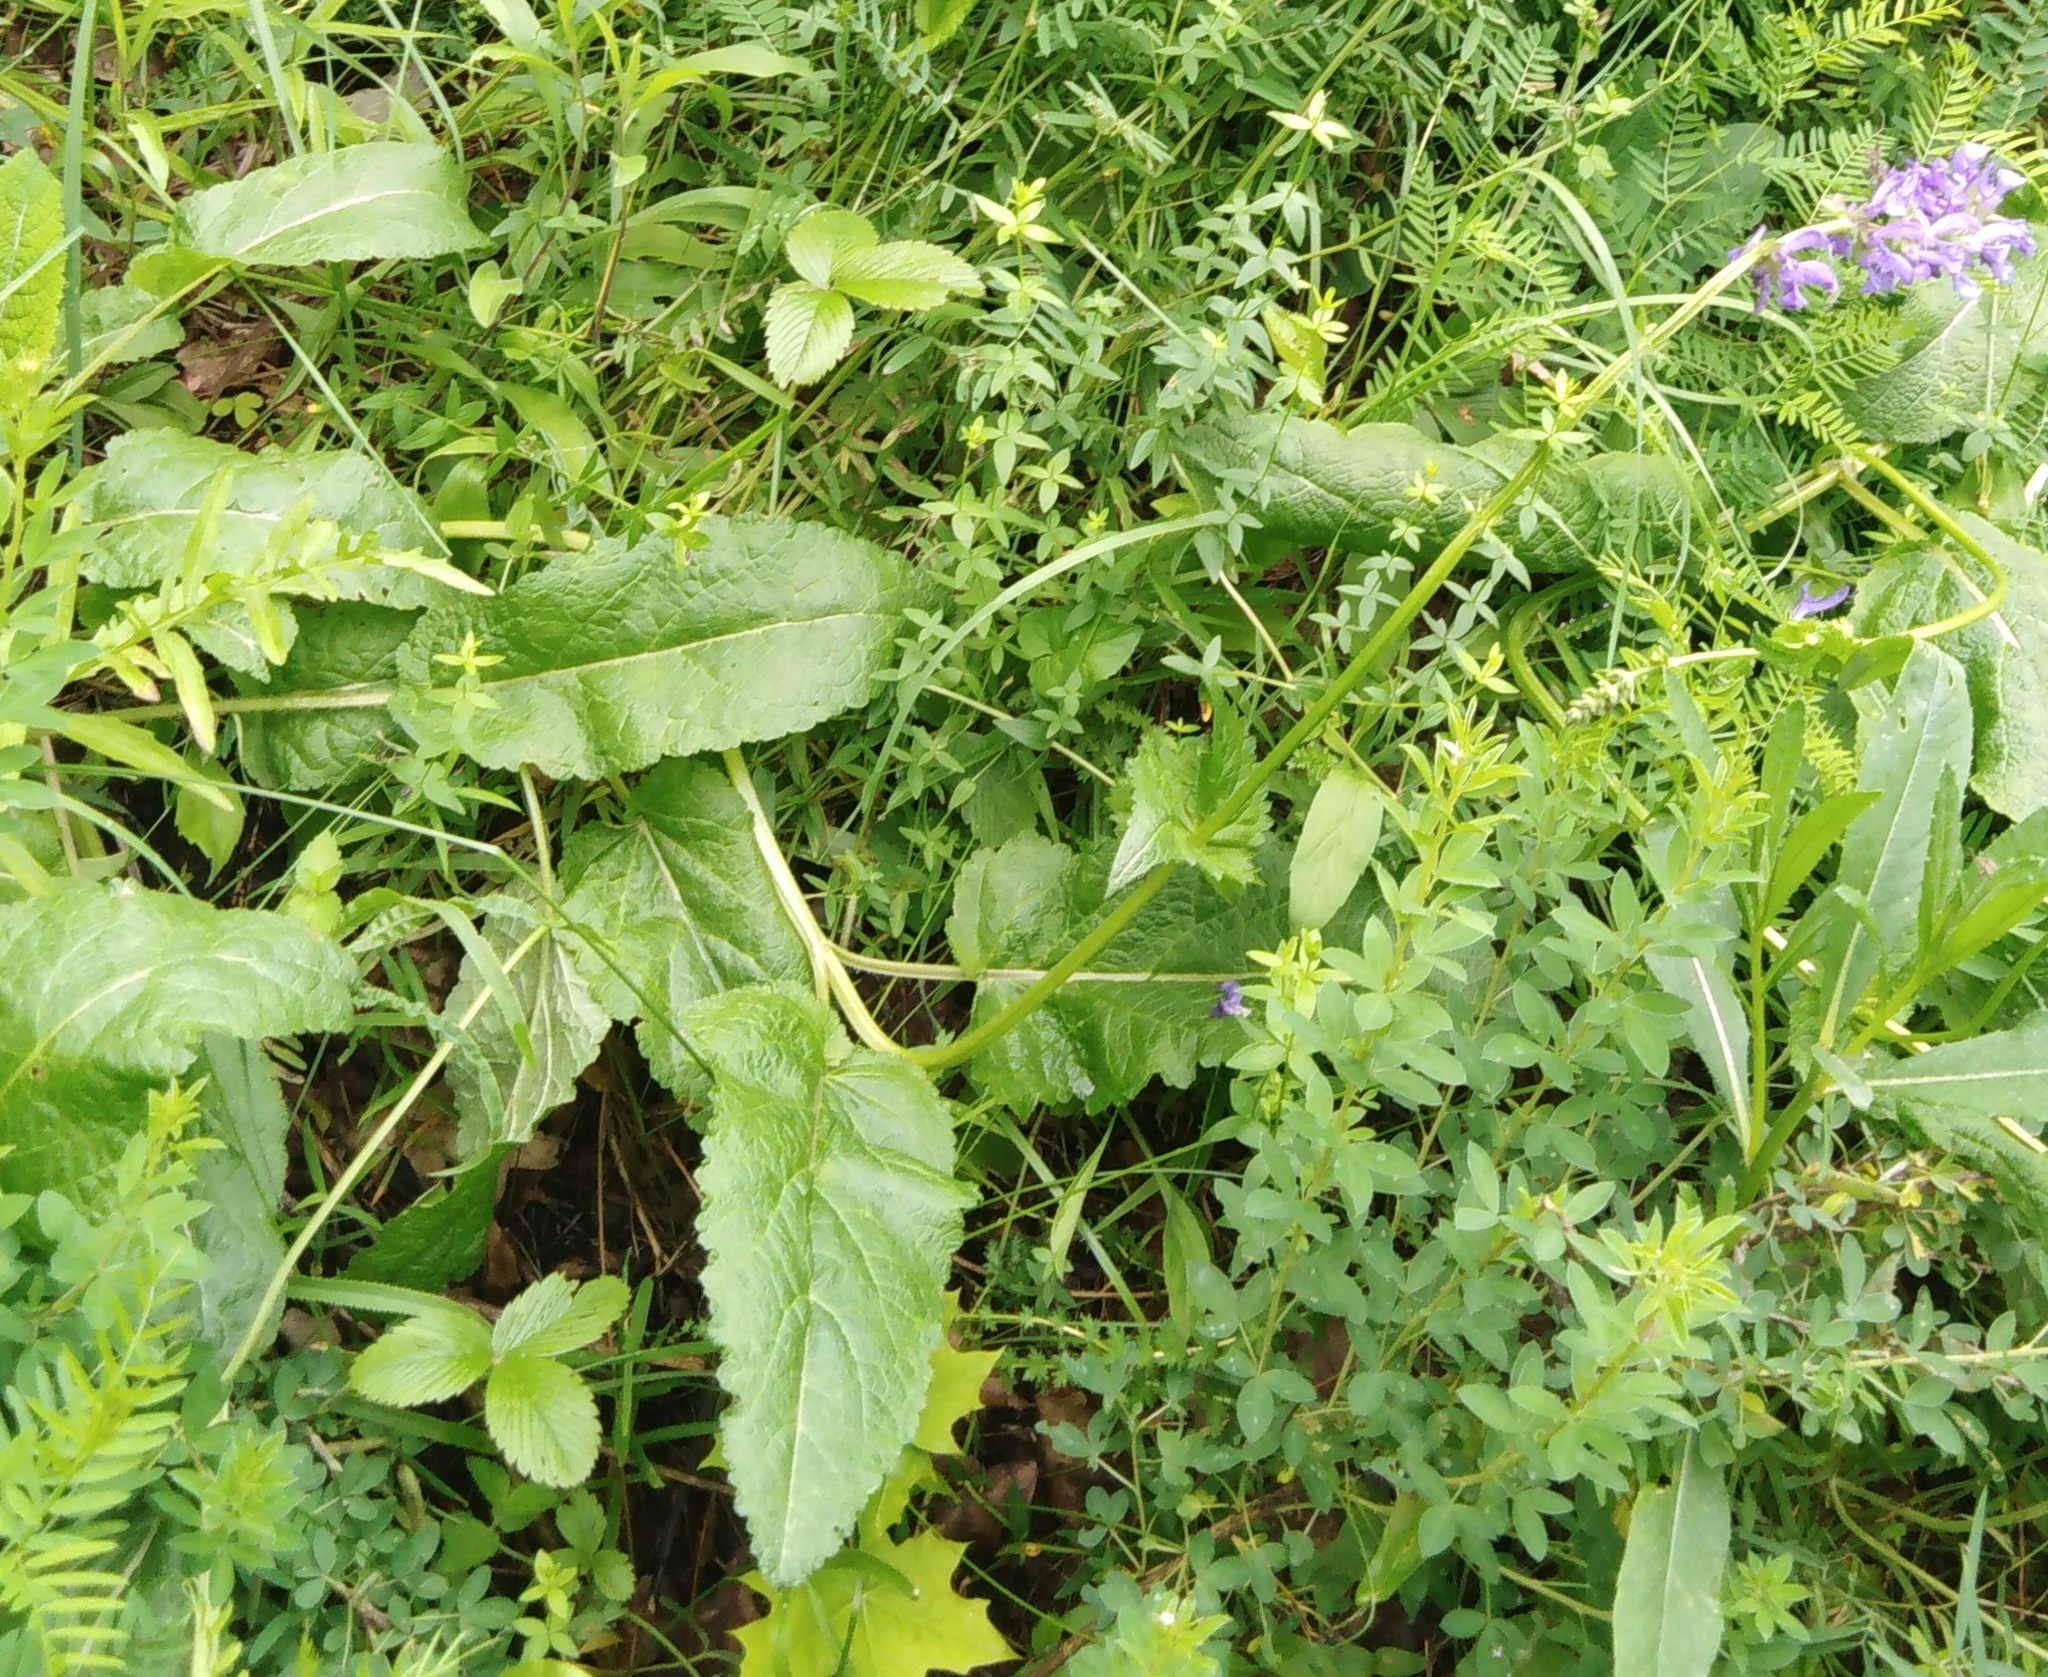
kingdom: Plantae
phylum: Tracheophyta
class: Magnoliopsida
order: Lamiales
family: Lamiaceae
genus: Betonica
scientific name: Betonica officinalis
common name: Bishop's-wort
